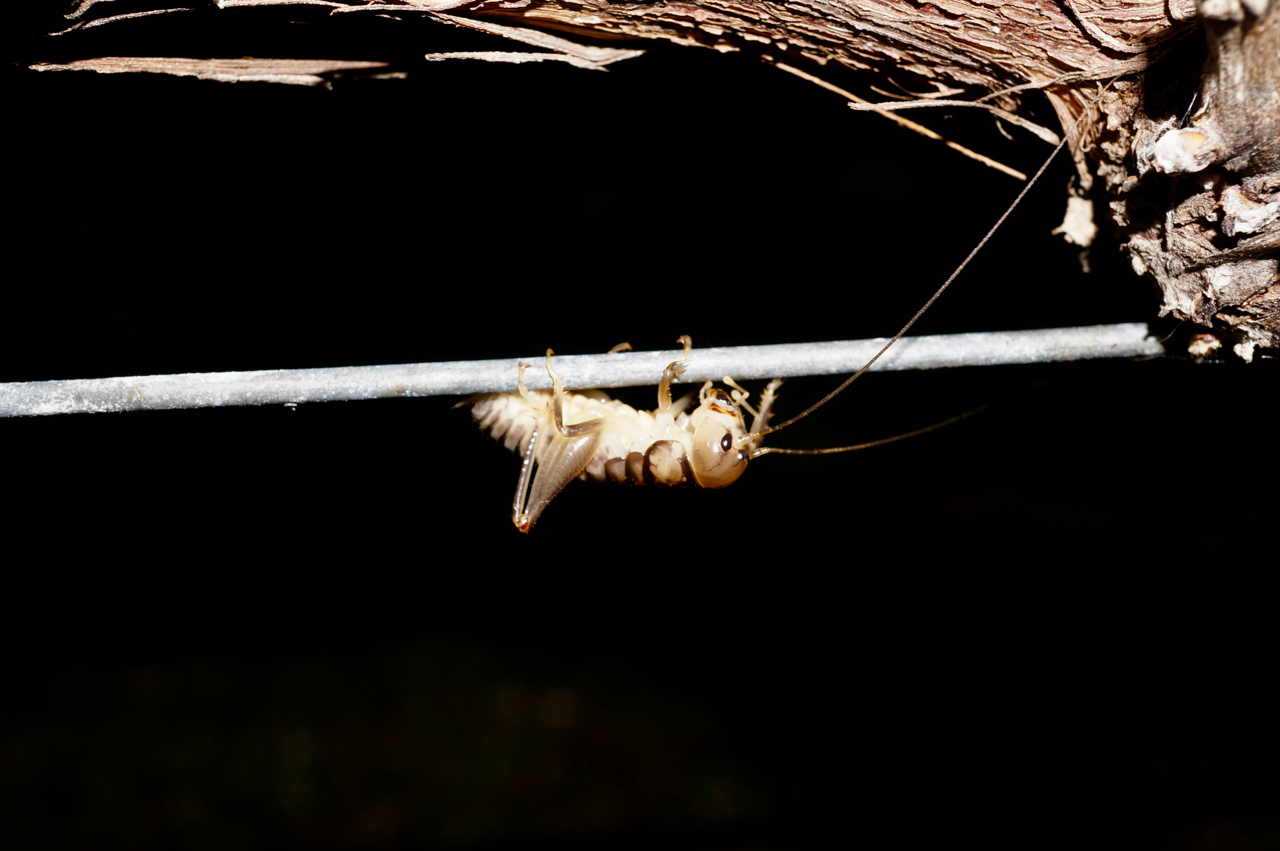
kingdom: Animalia
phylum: Arthropoda
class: Insecta
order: Orthoptera
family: Anostostomatidae
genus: Hemiandrus
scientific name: Hemiandrus bilobatus
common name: Wine wētā
